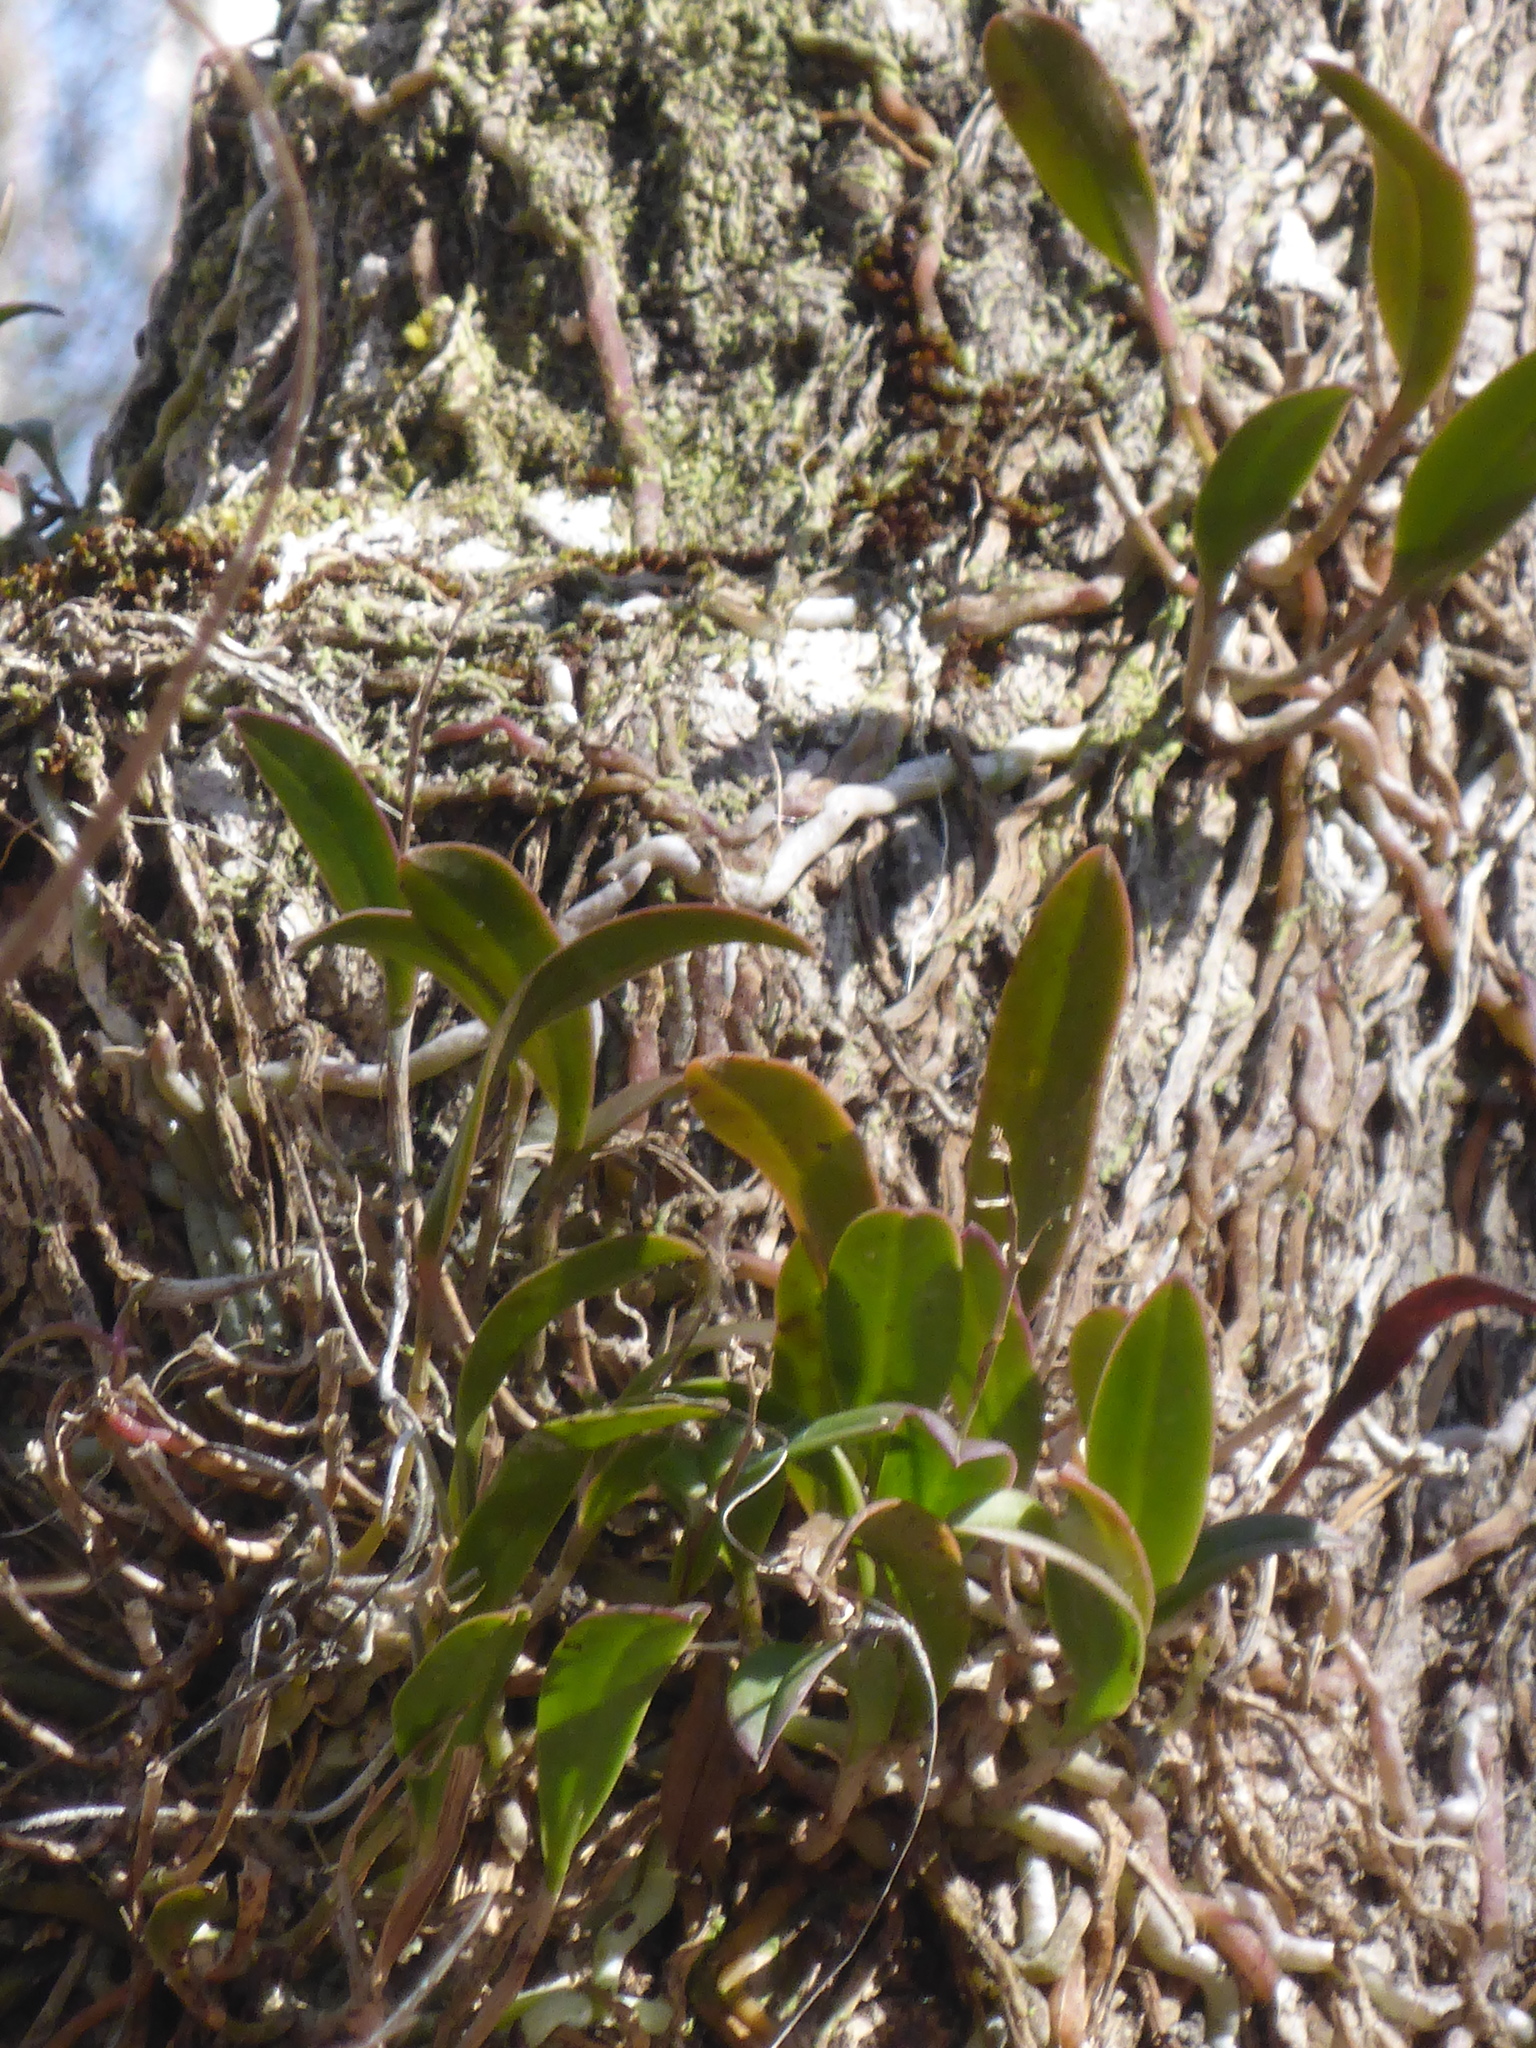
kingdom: Plantae
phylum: Tracheophyta
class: Liliopsida
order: Asparagales
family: Orchidaceae
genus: Epidendrum
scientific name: Epidendrum conopseum
